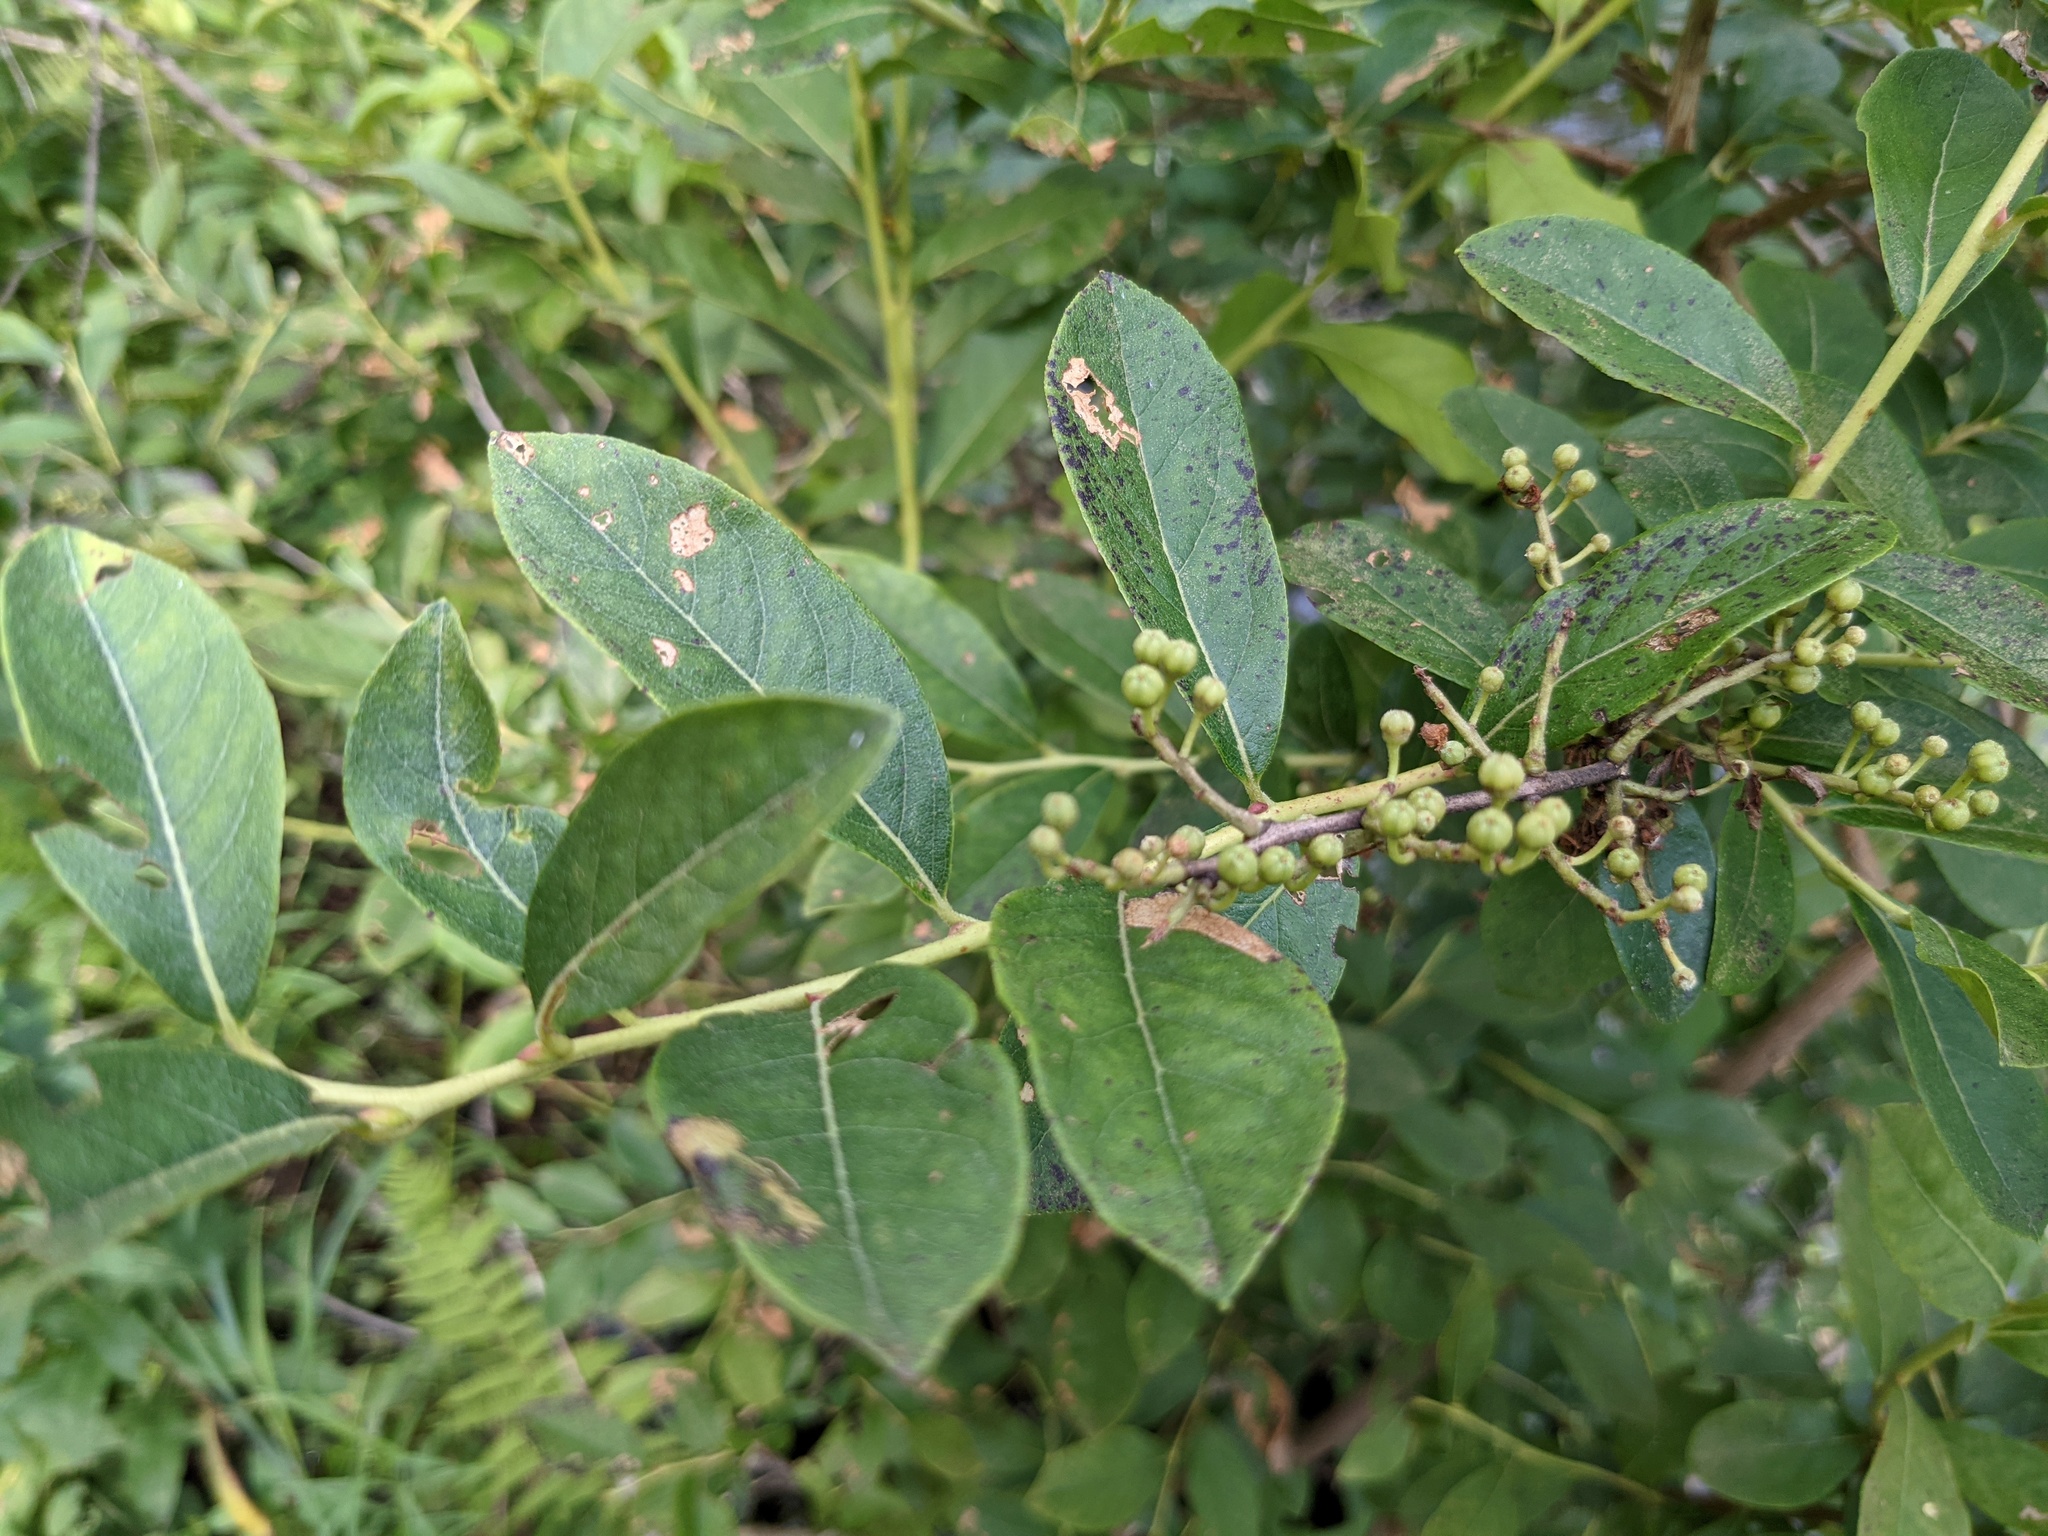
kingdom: Plantae
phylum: Tracheophyta
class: Magnoliopsida
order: Ericales
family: Ericaceae
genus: Lyonia
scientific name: Lyonia ligustrina
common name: Maleberry
